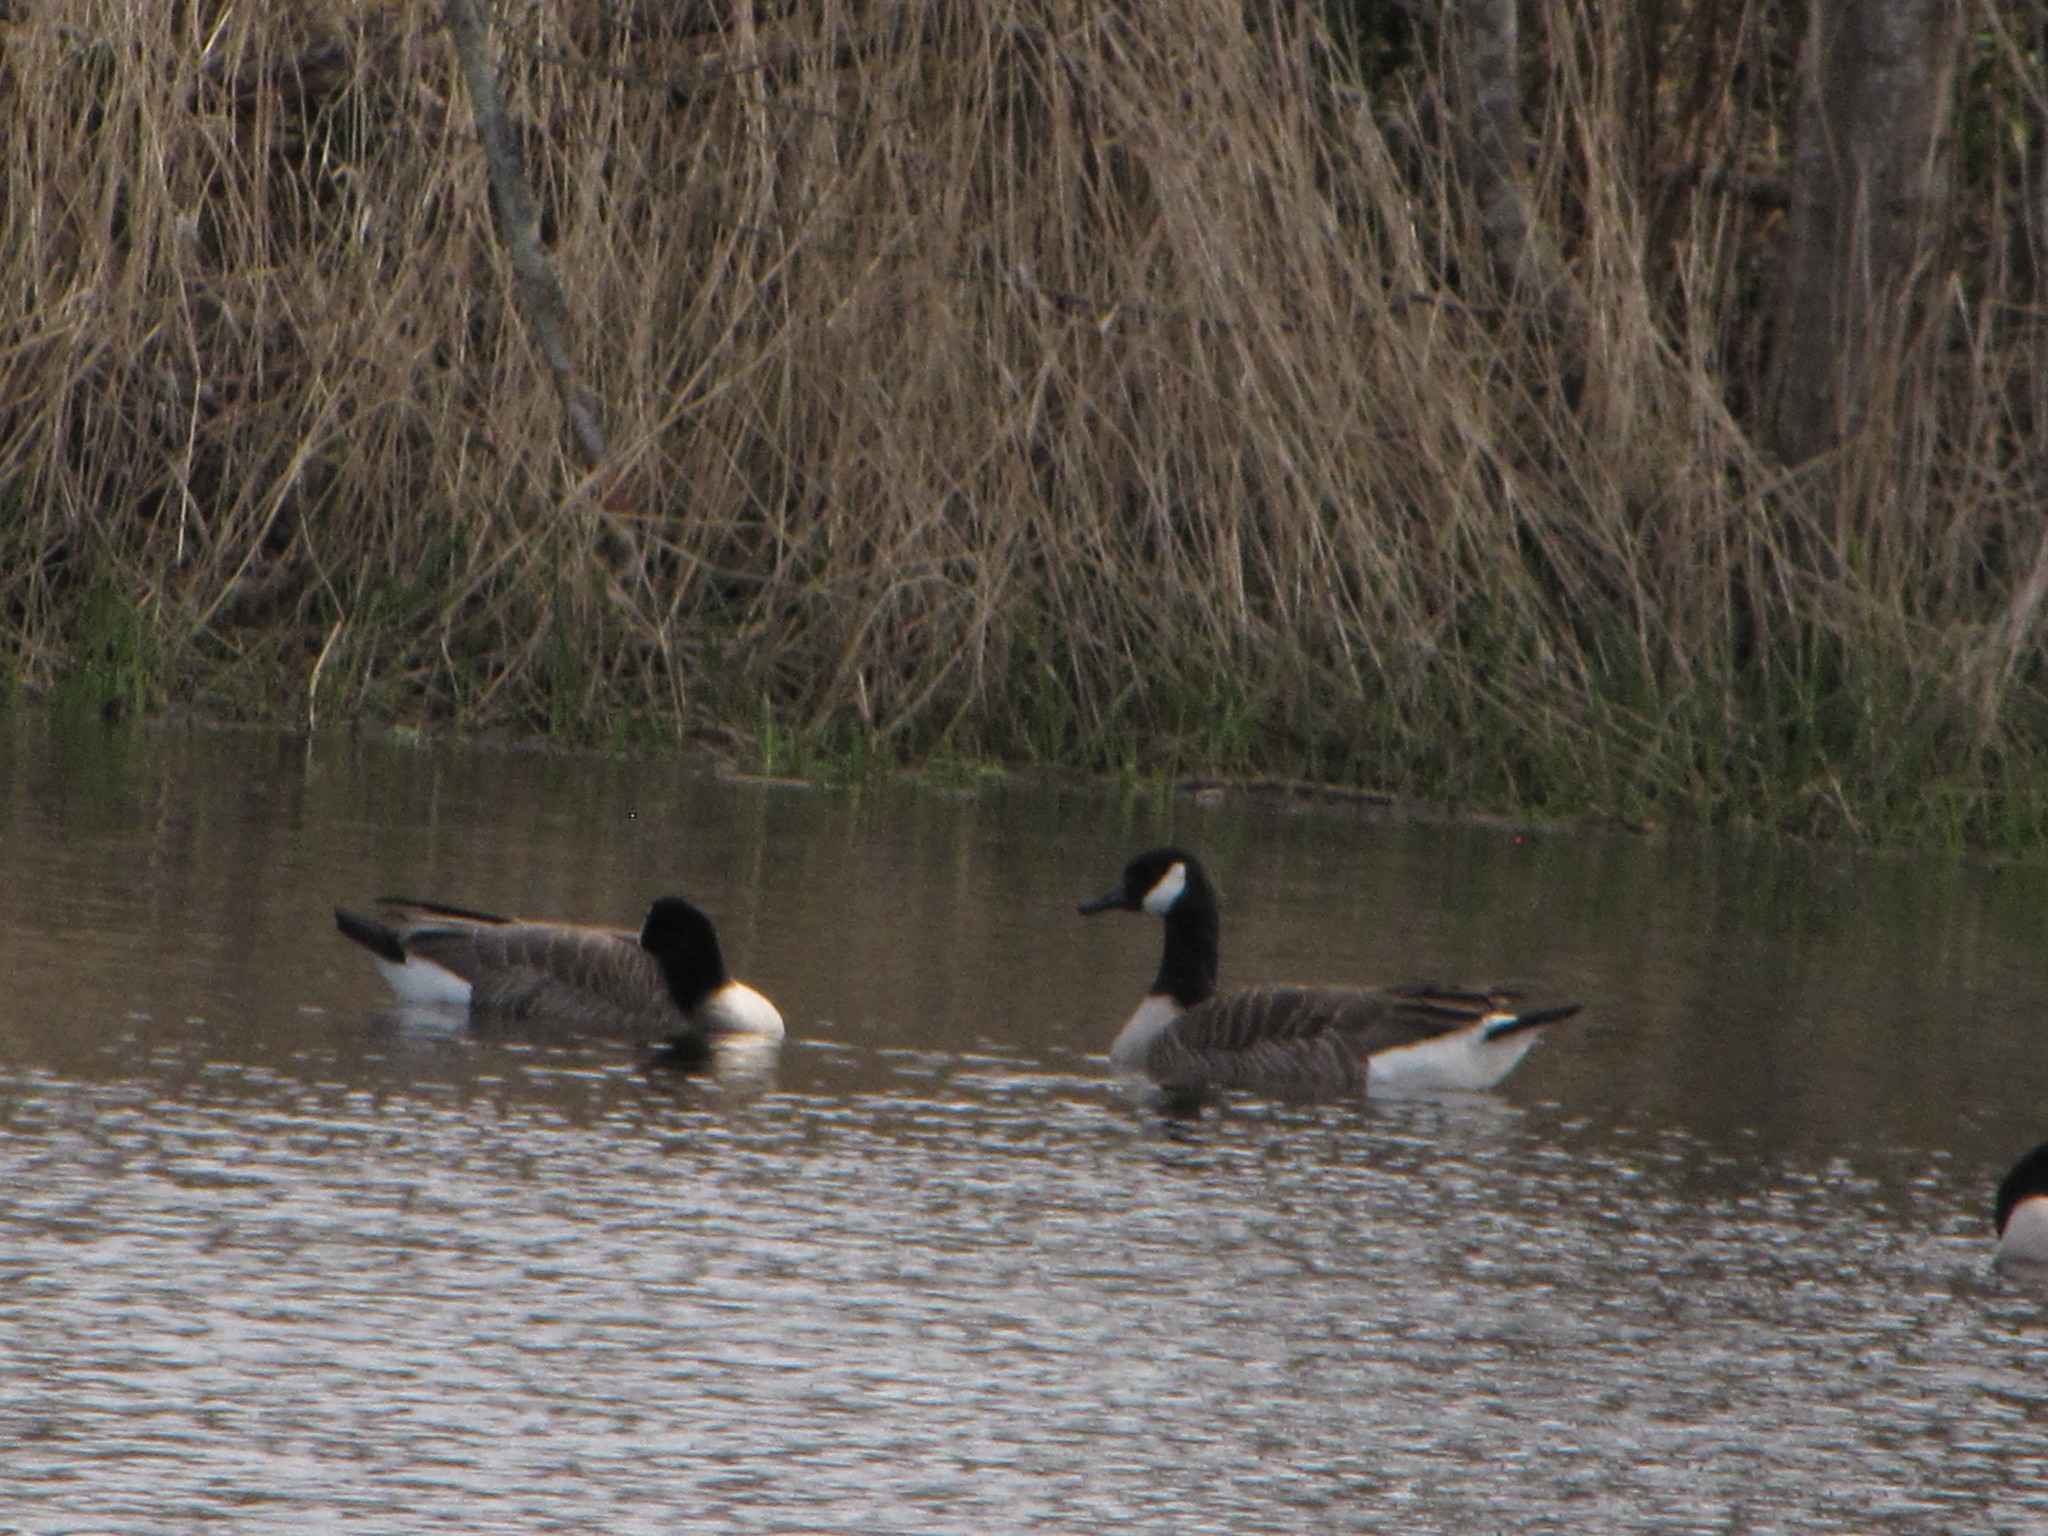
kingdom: Animalia
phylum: Chordata
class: Aves
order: Anseriformes
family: Anatidae
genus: Branta
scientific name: Branta canadensis
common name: Canada goose
